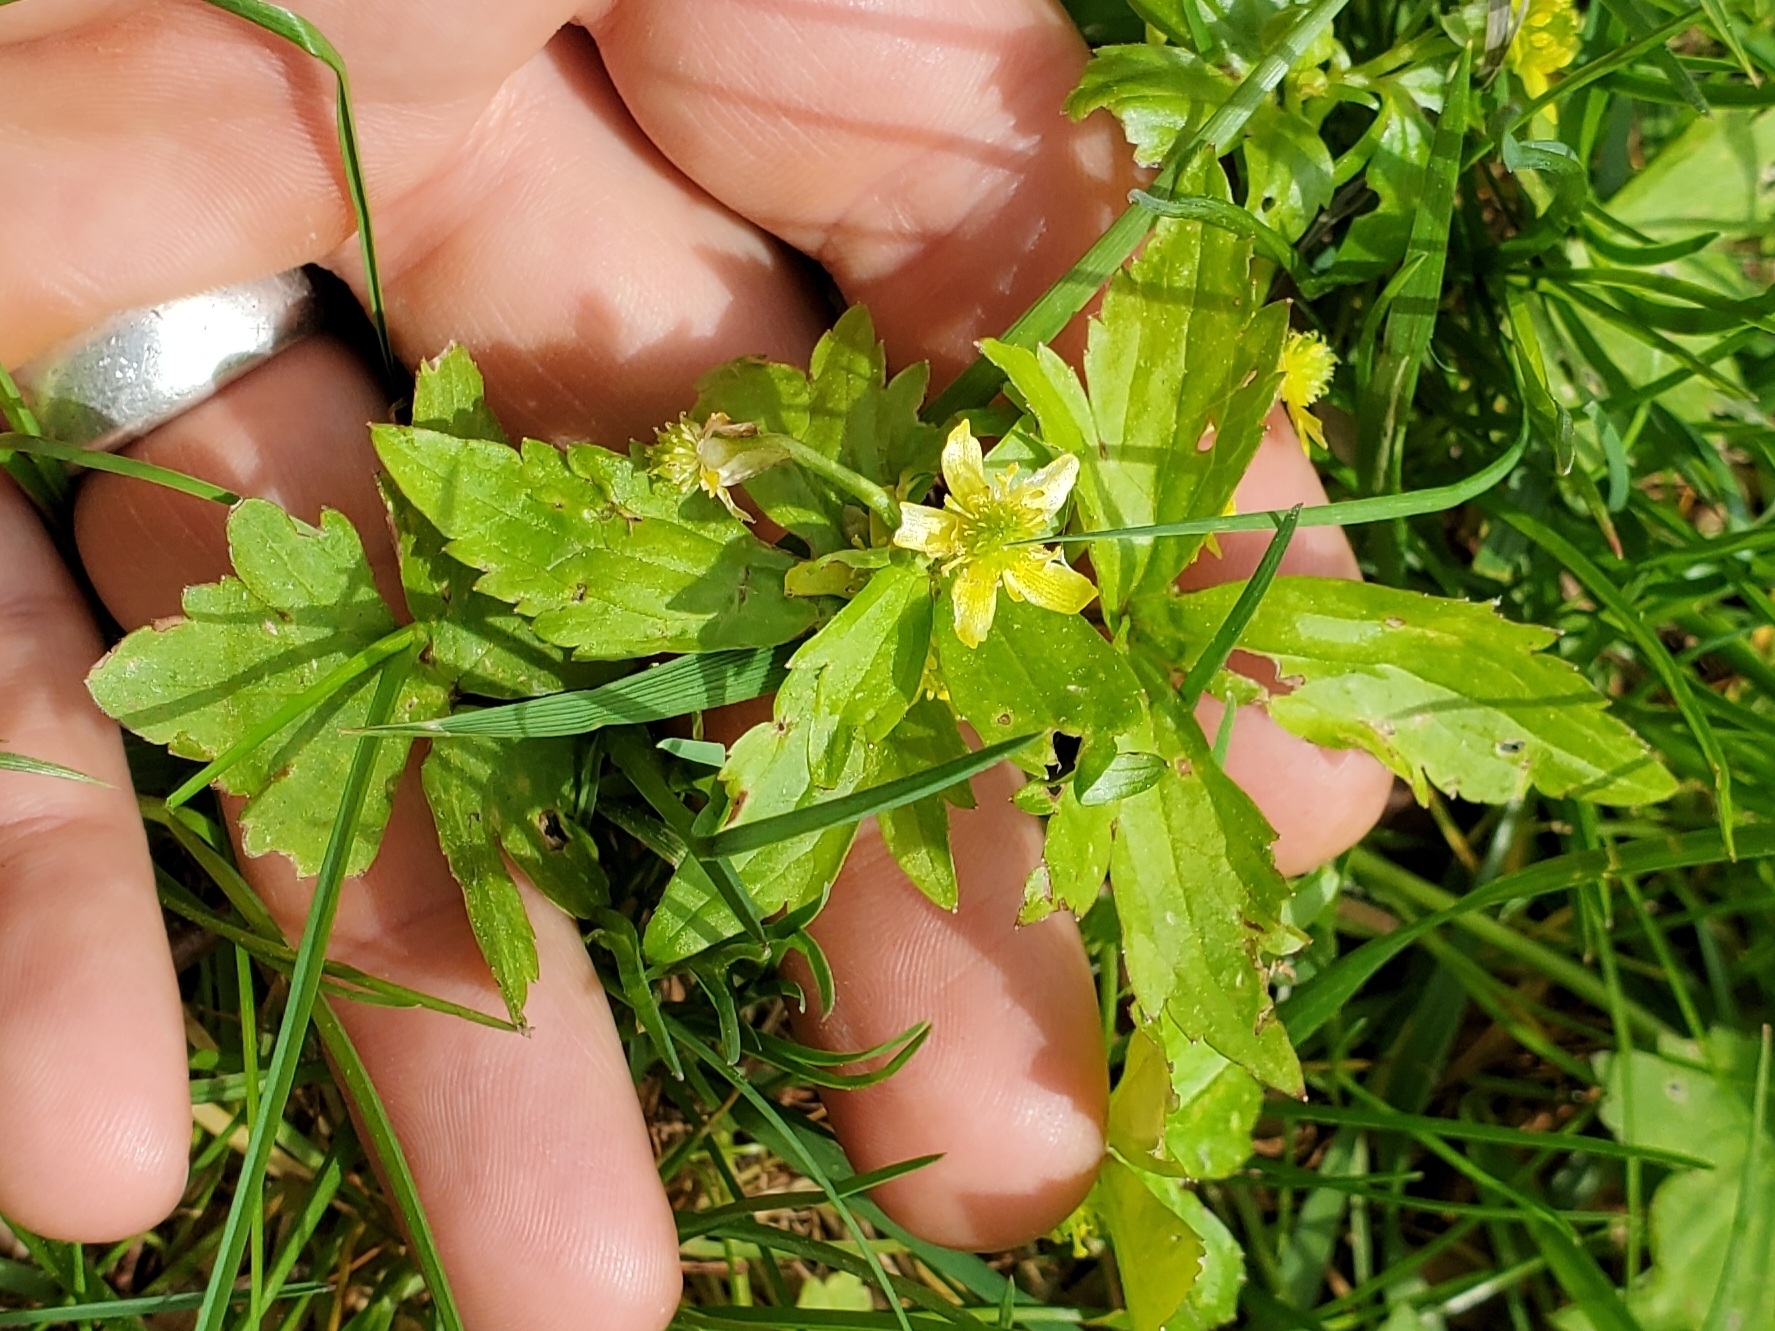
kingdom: Plantae
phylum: Tracheophyta
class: Magnoliopsida
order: Ranunculales
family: Ranunculaceae
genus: Ranunculus
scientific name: Ranunculus recurvatus
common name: Blisterwort
